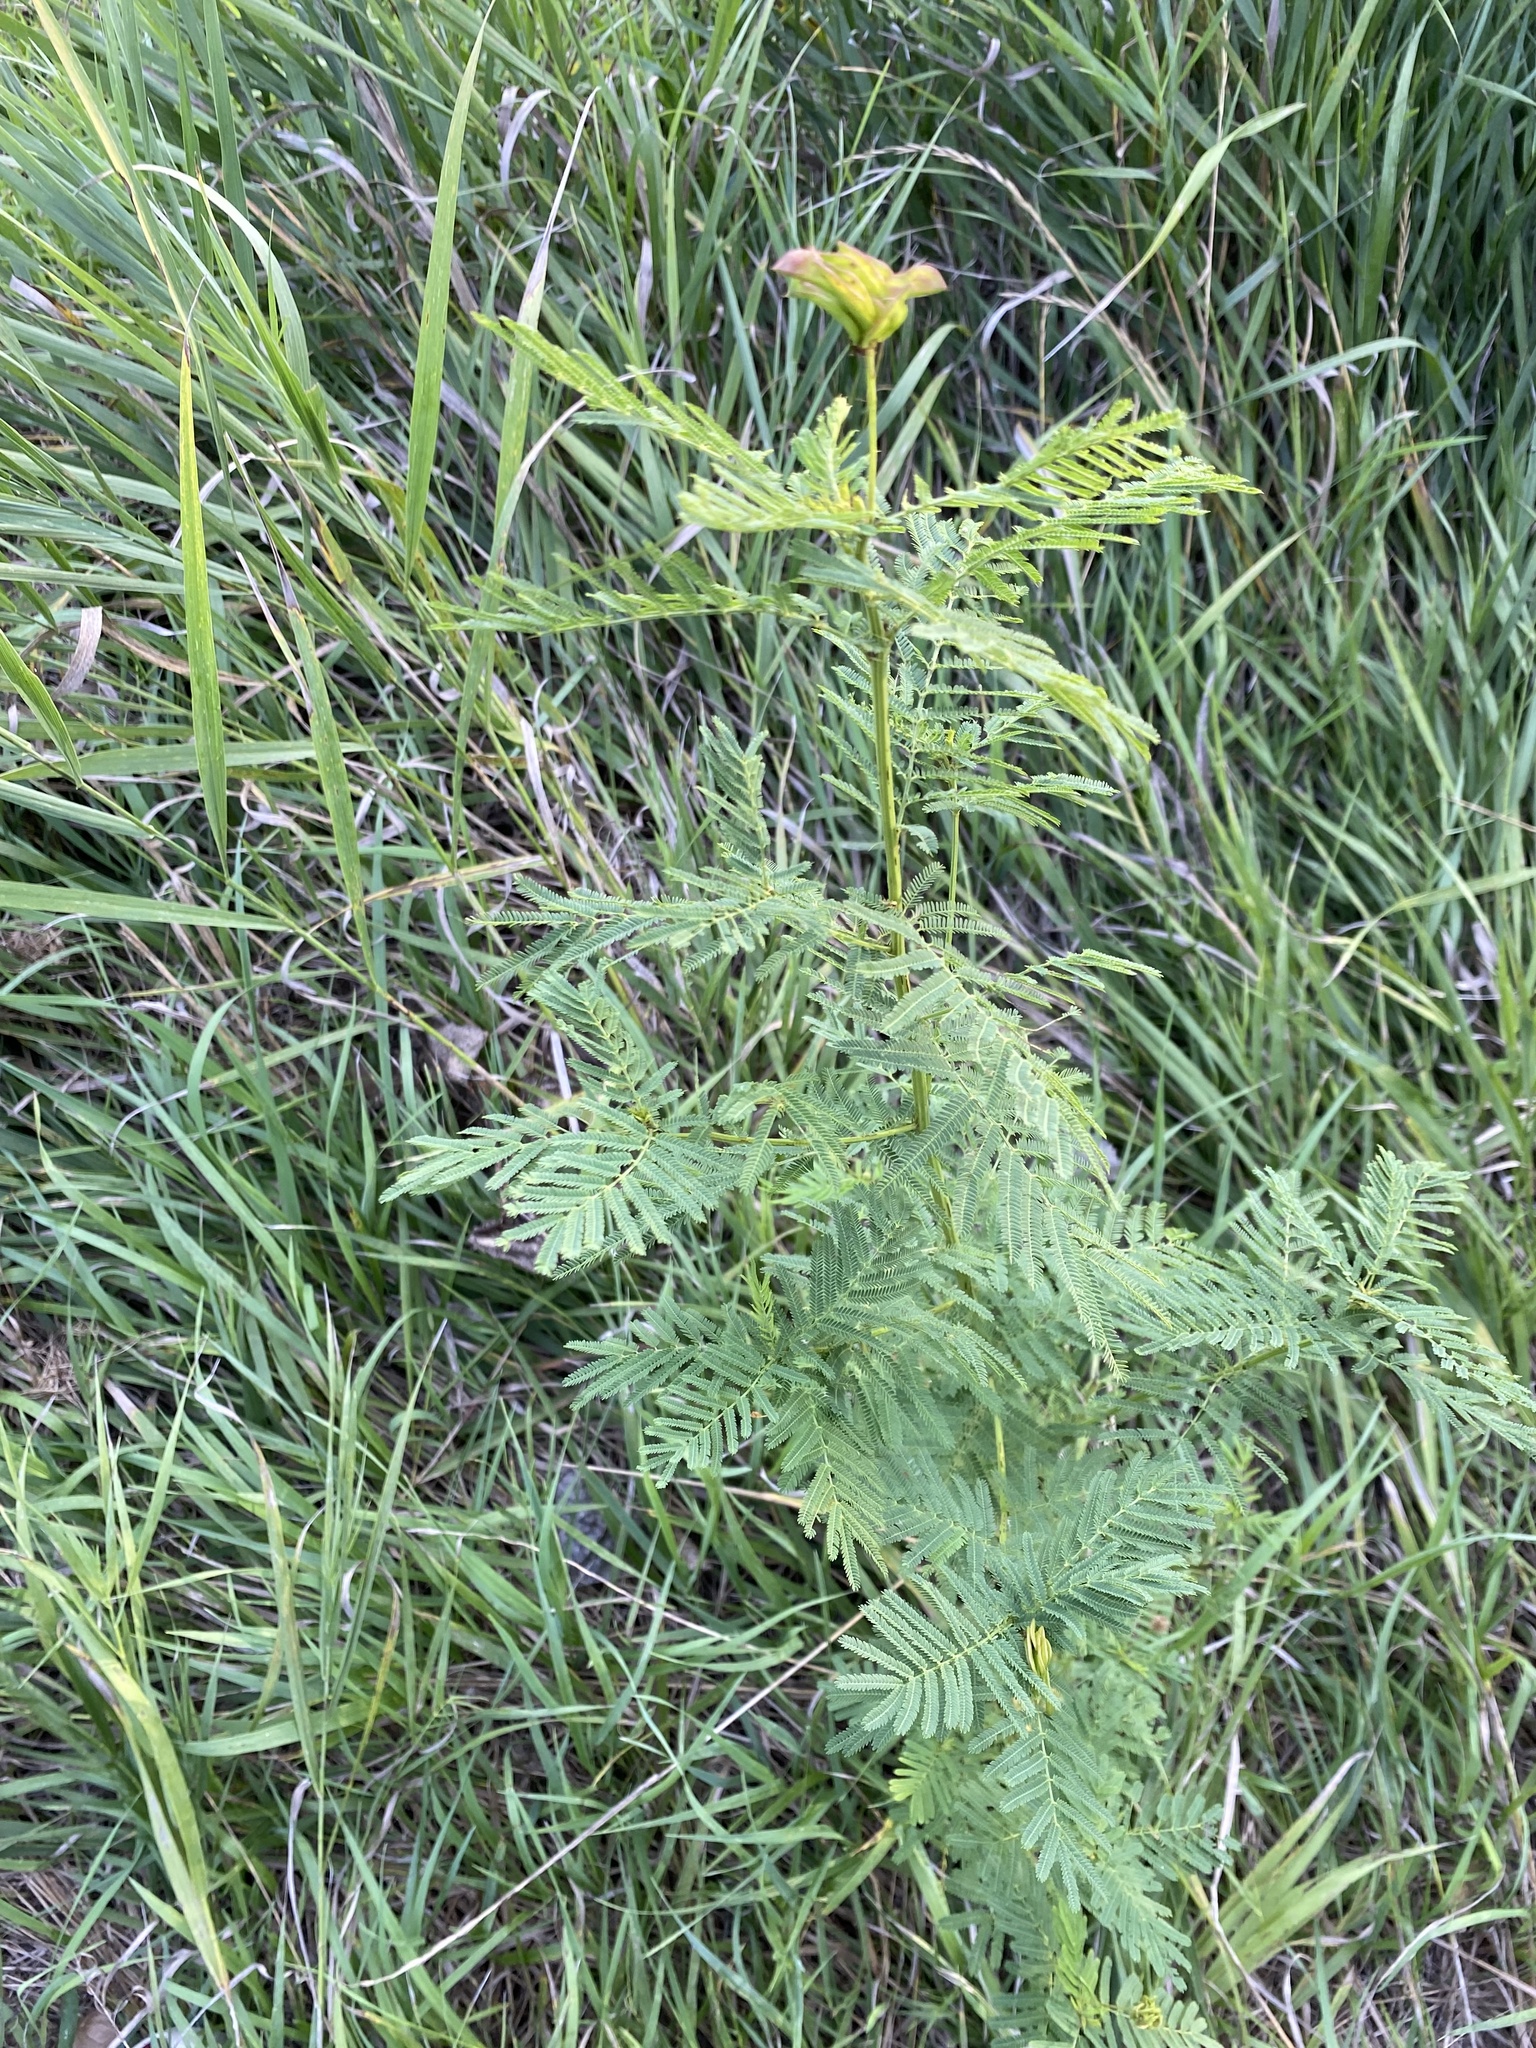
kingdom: Plantae
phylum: Tracheophyta
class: Magnoliopsida
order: Fabales
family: Fabaceae
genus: Desmanthus
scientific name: Desmanthus illinoensis
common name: Illinois bundle-flower
